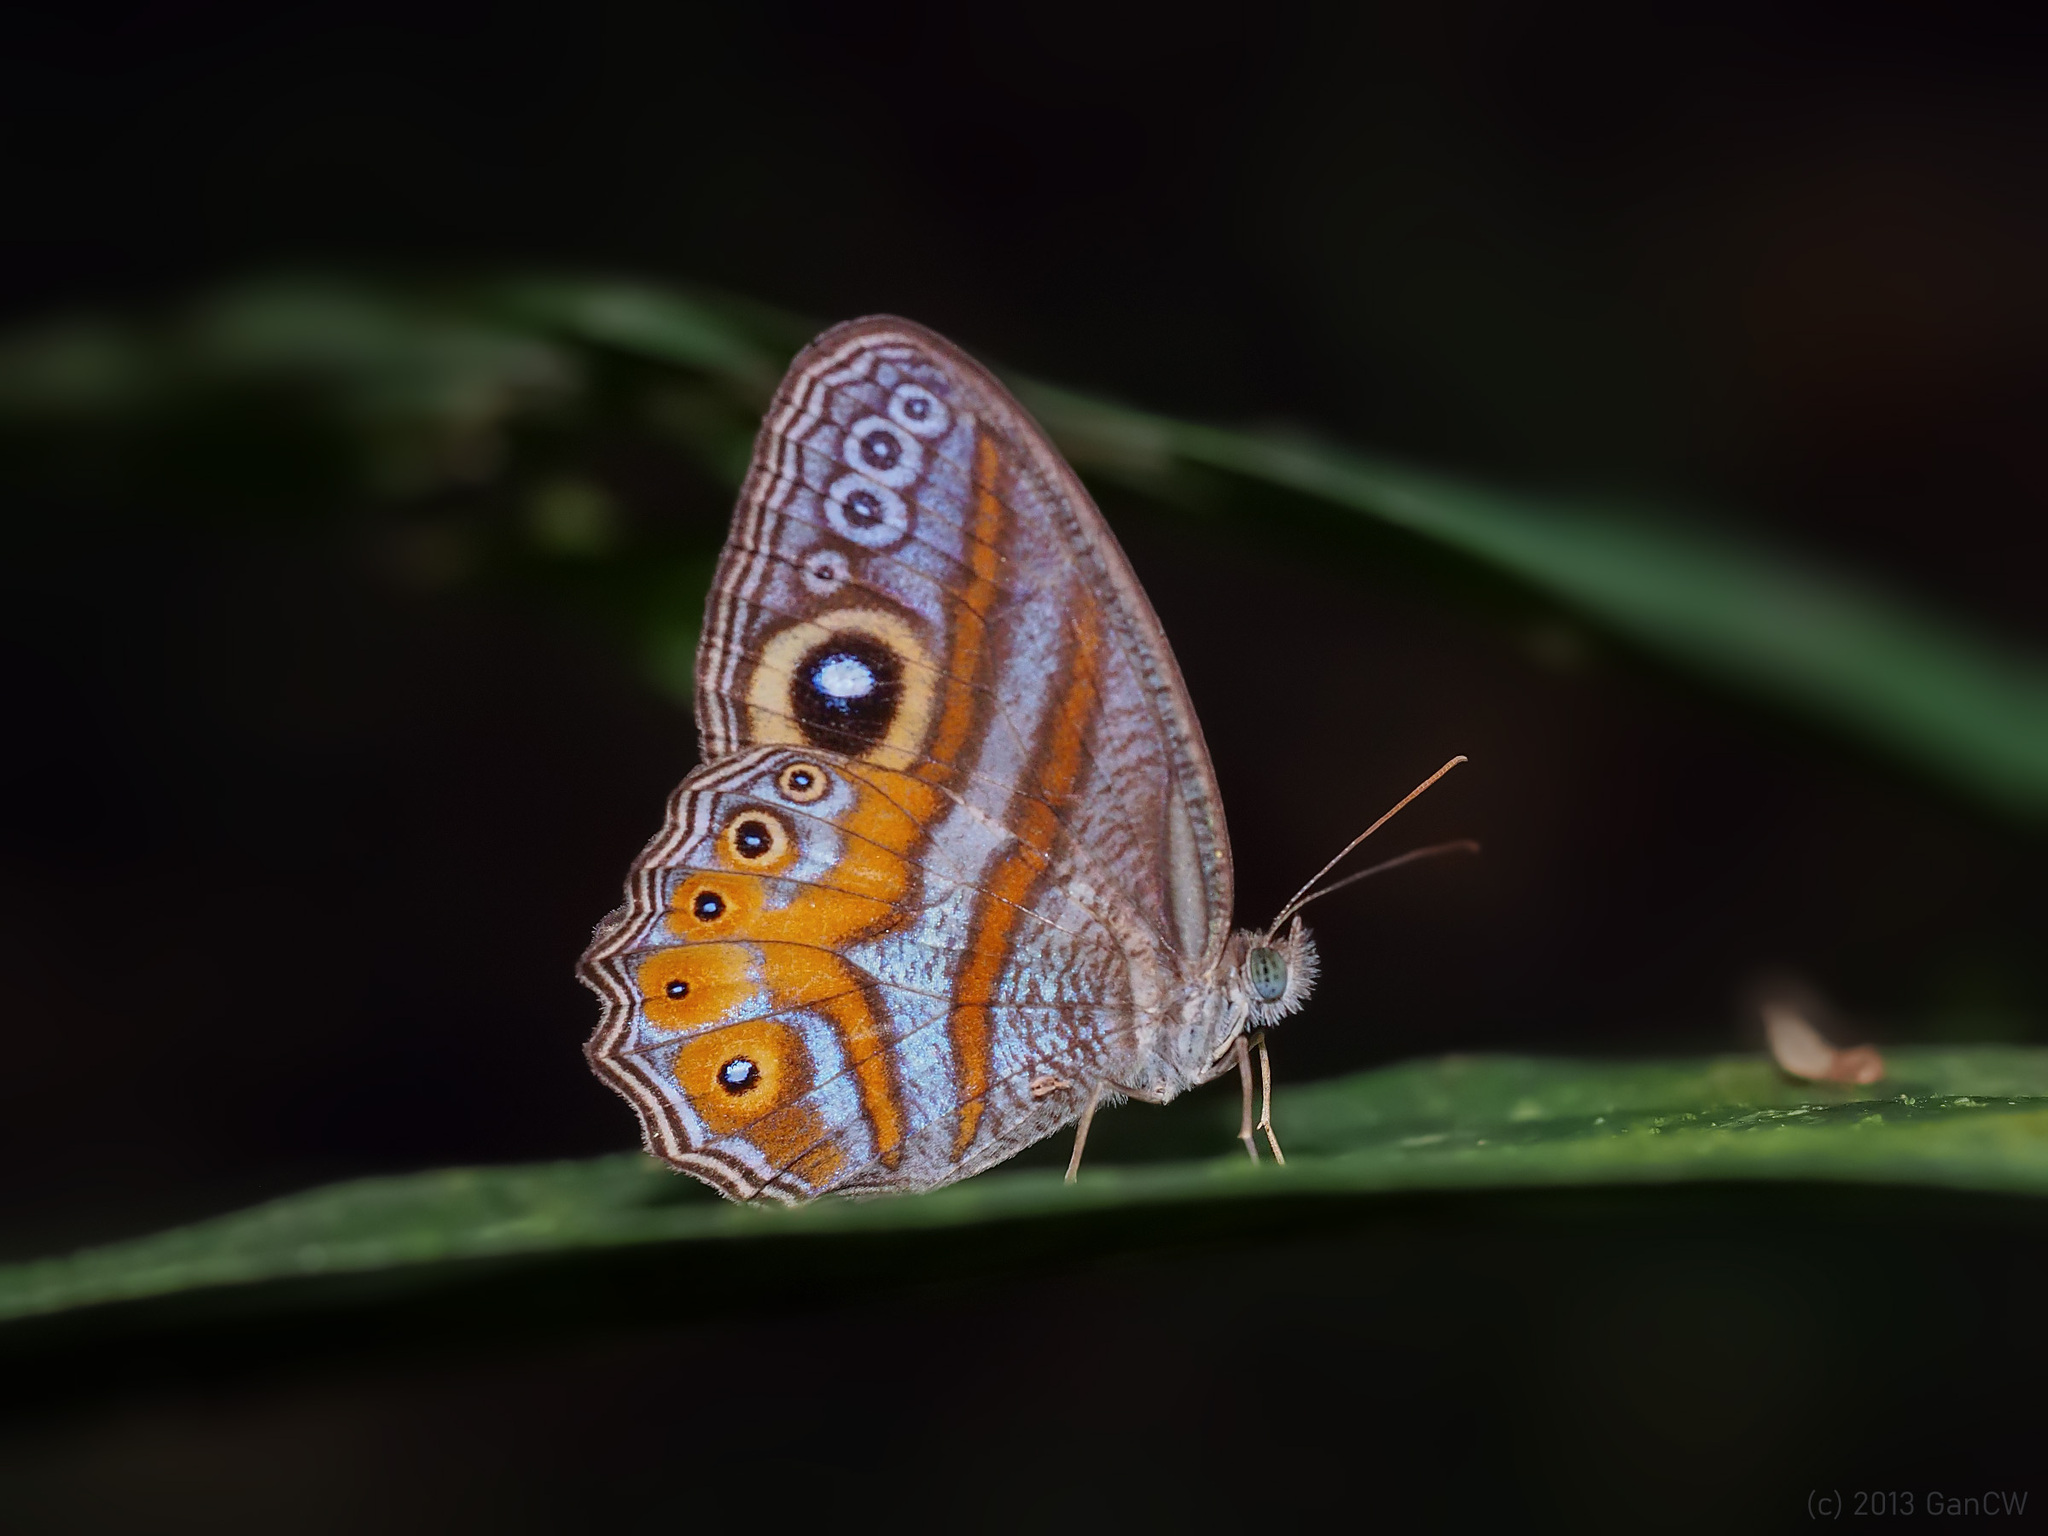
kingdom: Animalia
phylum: Arthropoda
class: Insecta
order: Lepidoptera
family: Nymphalidae
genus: Erites
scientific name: Erites argentina
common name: Eyed cyclops
